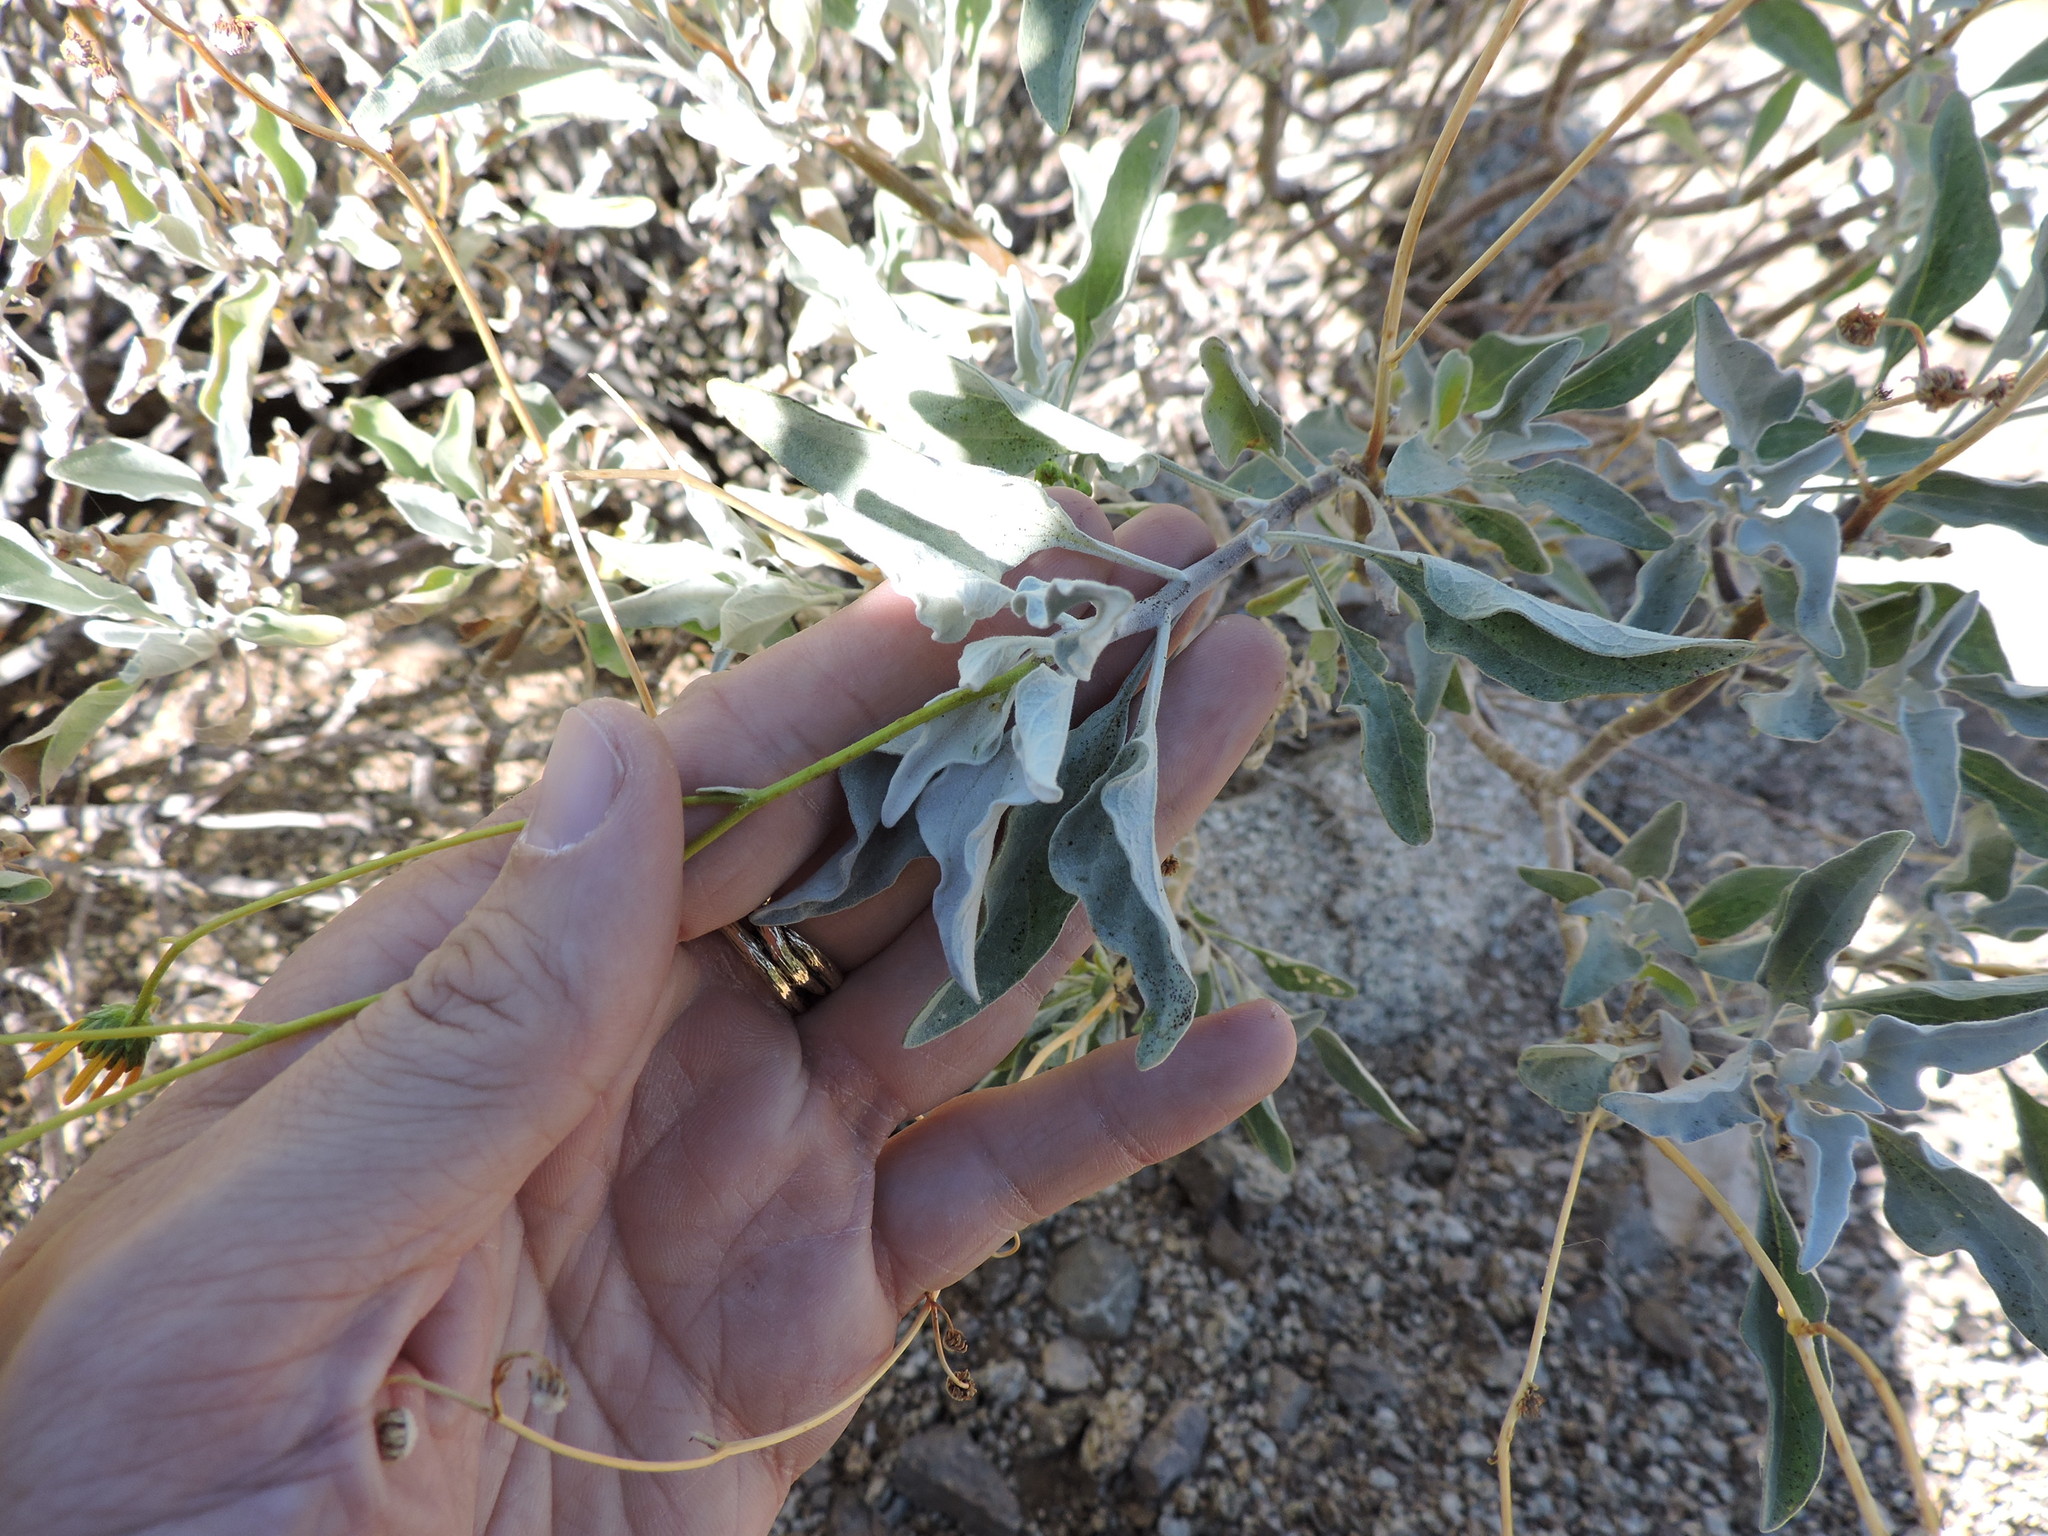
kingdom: Plantae
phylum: Tracheophyta
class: Magnoliopsida
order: Asterales
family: Asteraceae
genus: Encelia
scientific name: Encelia farinosa
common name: Brittlebush
